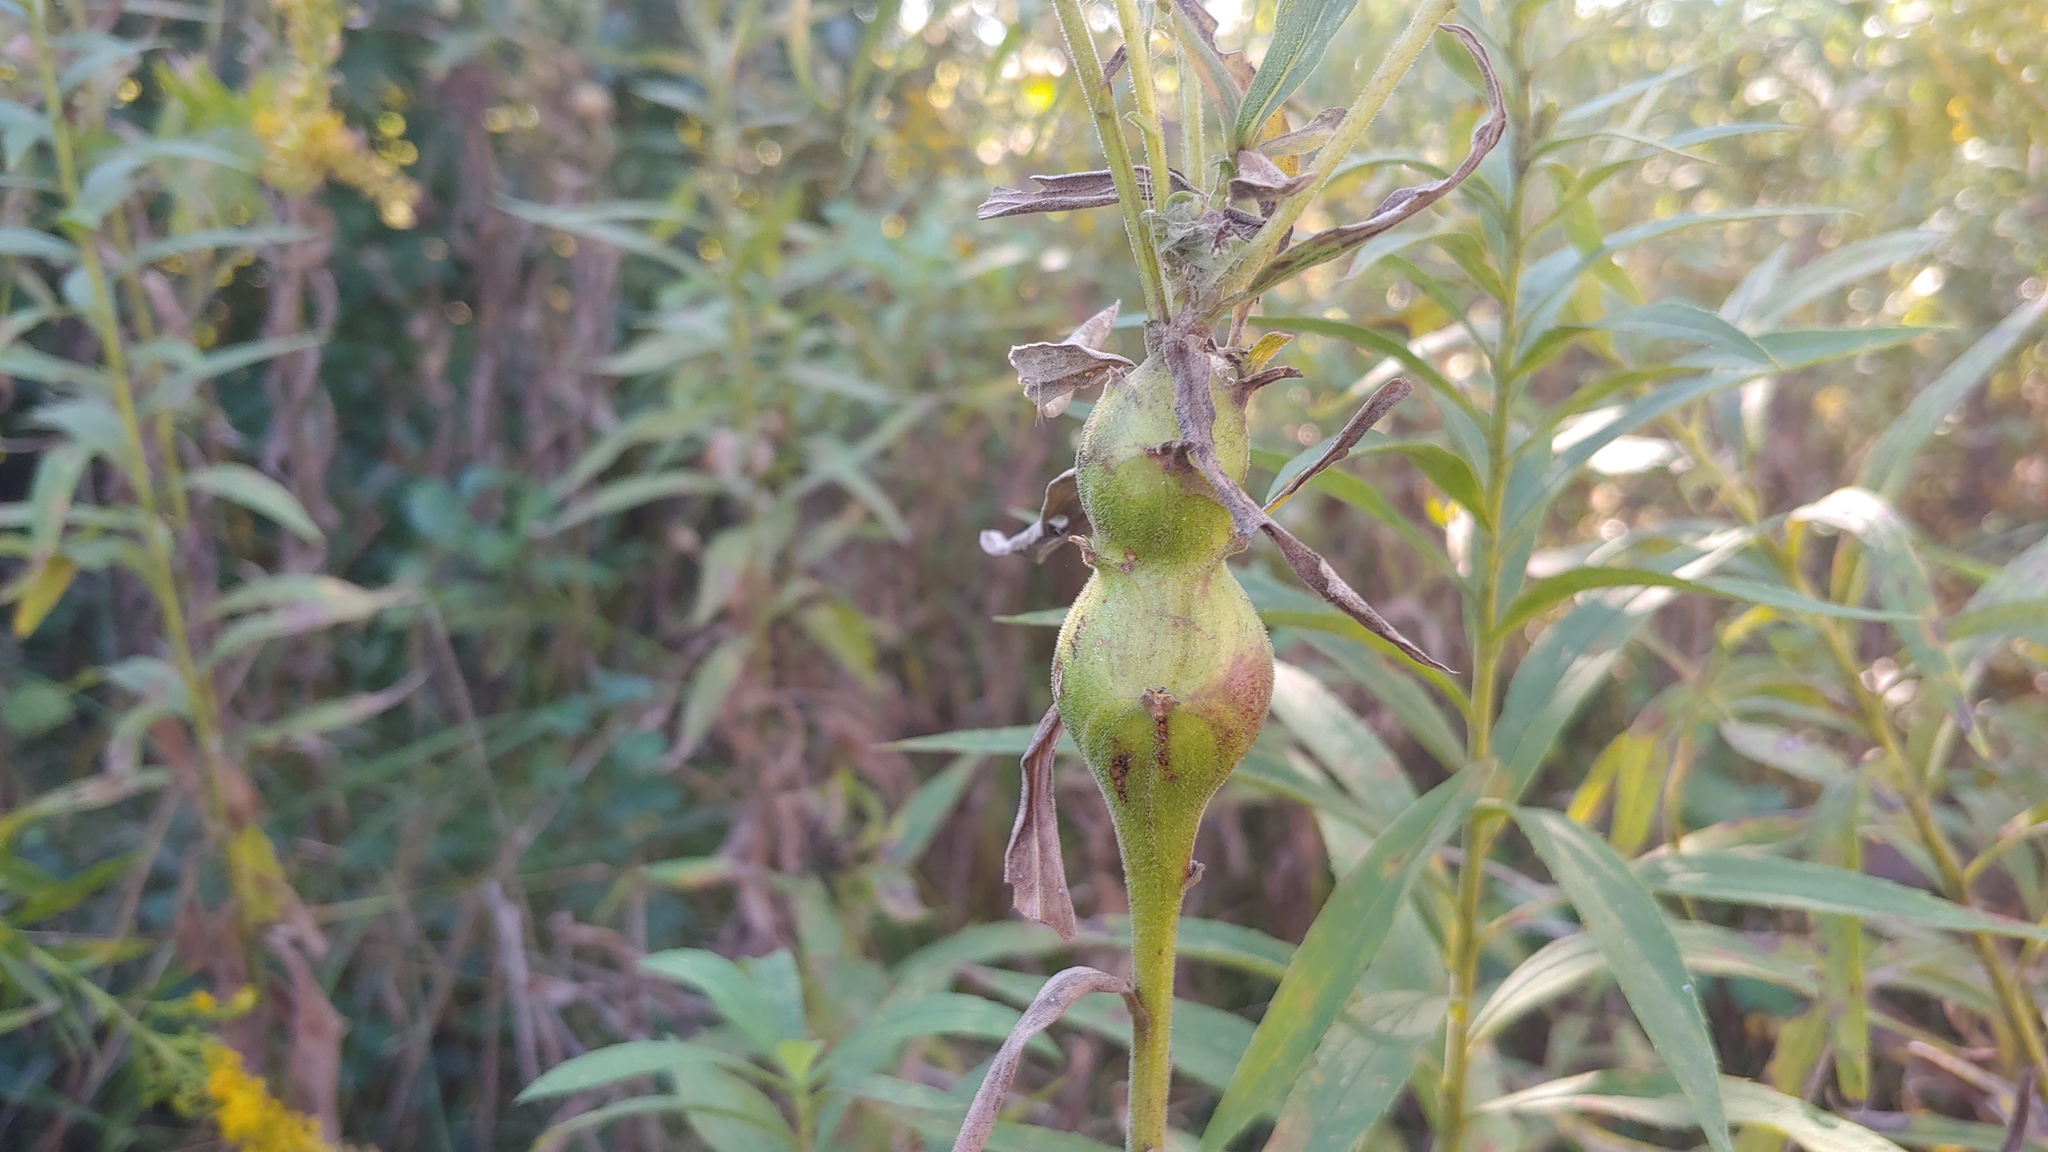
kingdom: Animalia
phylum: Arthropoda
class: Insecta
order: Diptera
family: Tephritidae
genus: Eurosta
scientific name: Eurosta solidaginis
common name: Goldenrod gall fly
